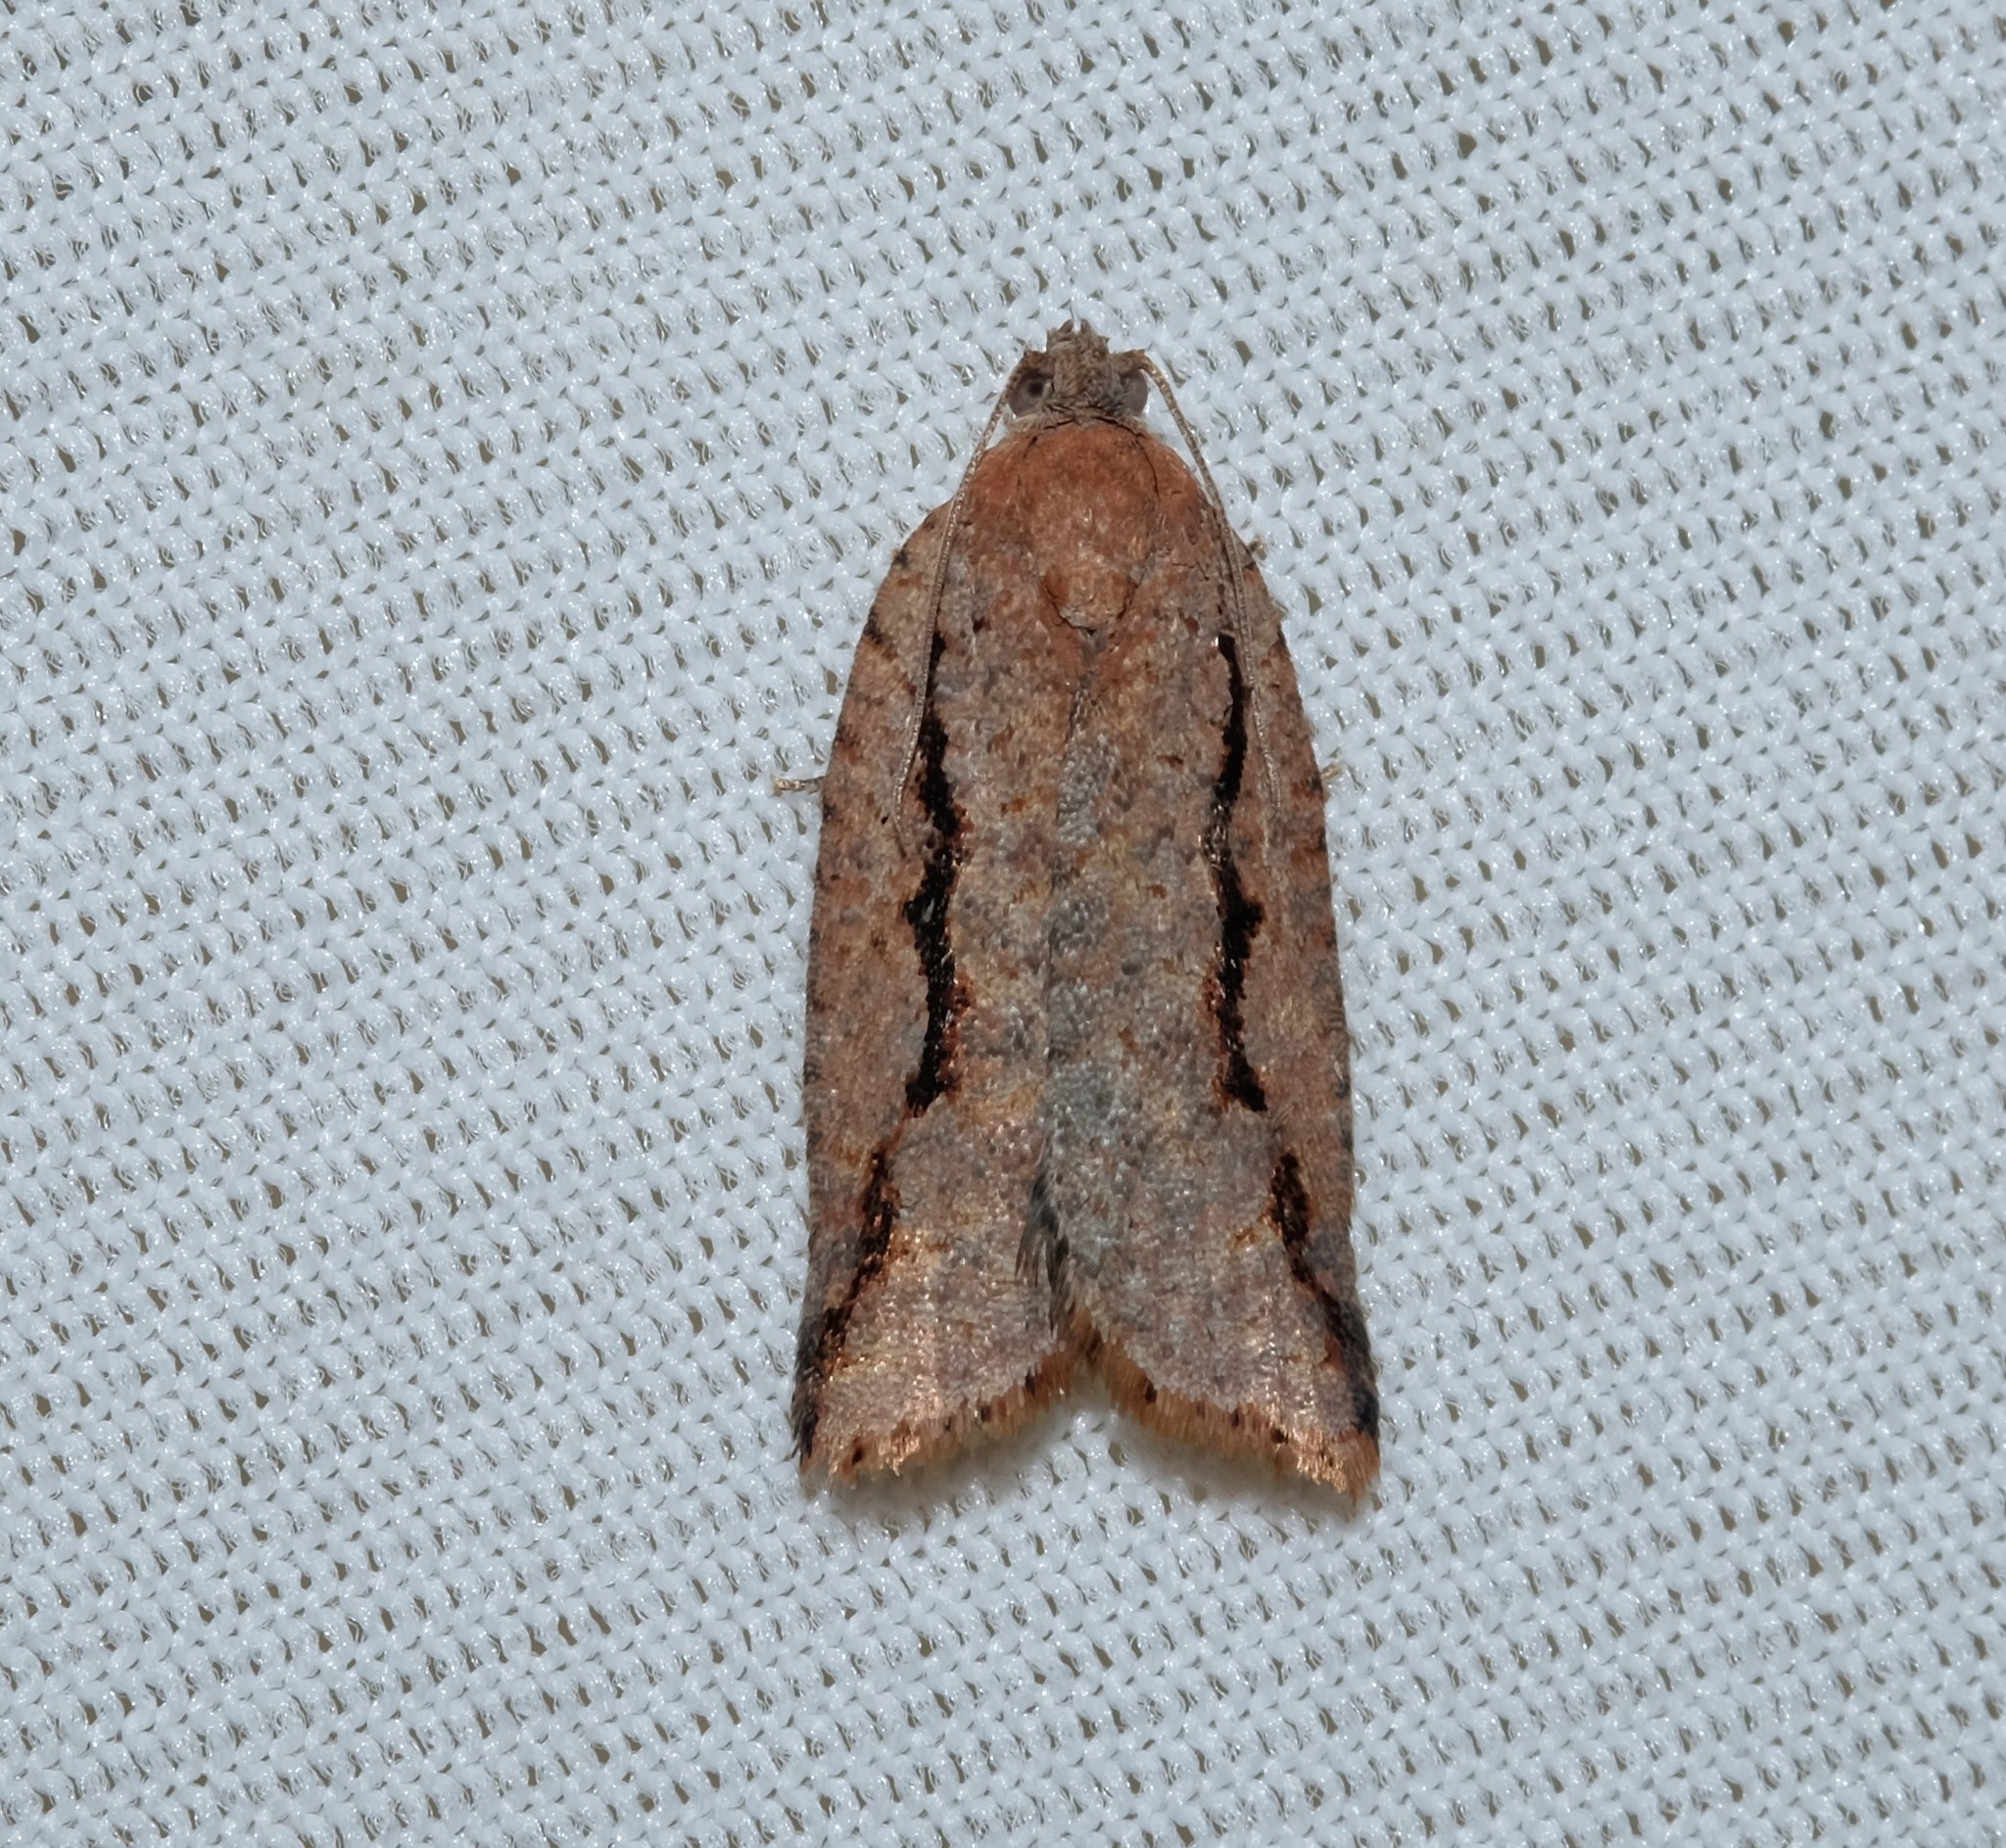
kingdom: Animalia
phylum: Arthropoda
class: Insecta
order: Lepidoptera
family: Tortricidae
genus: Meritastis
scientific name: Meritastis
